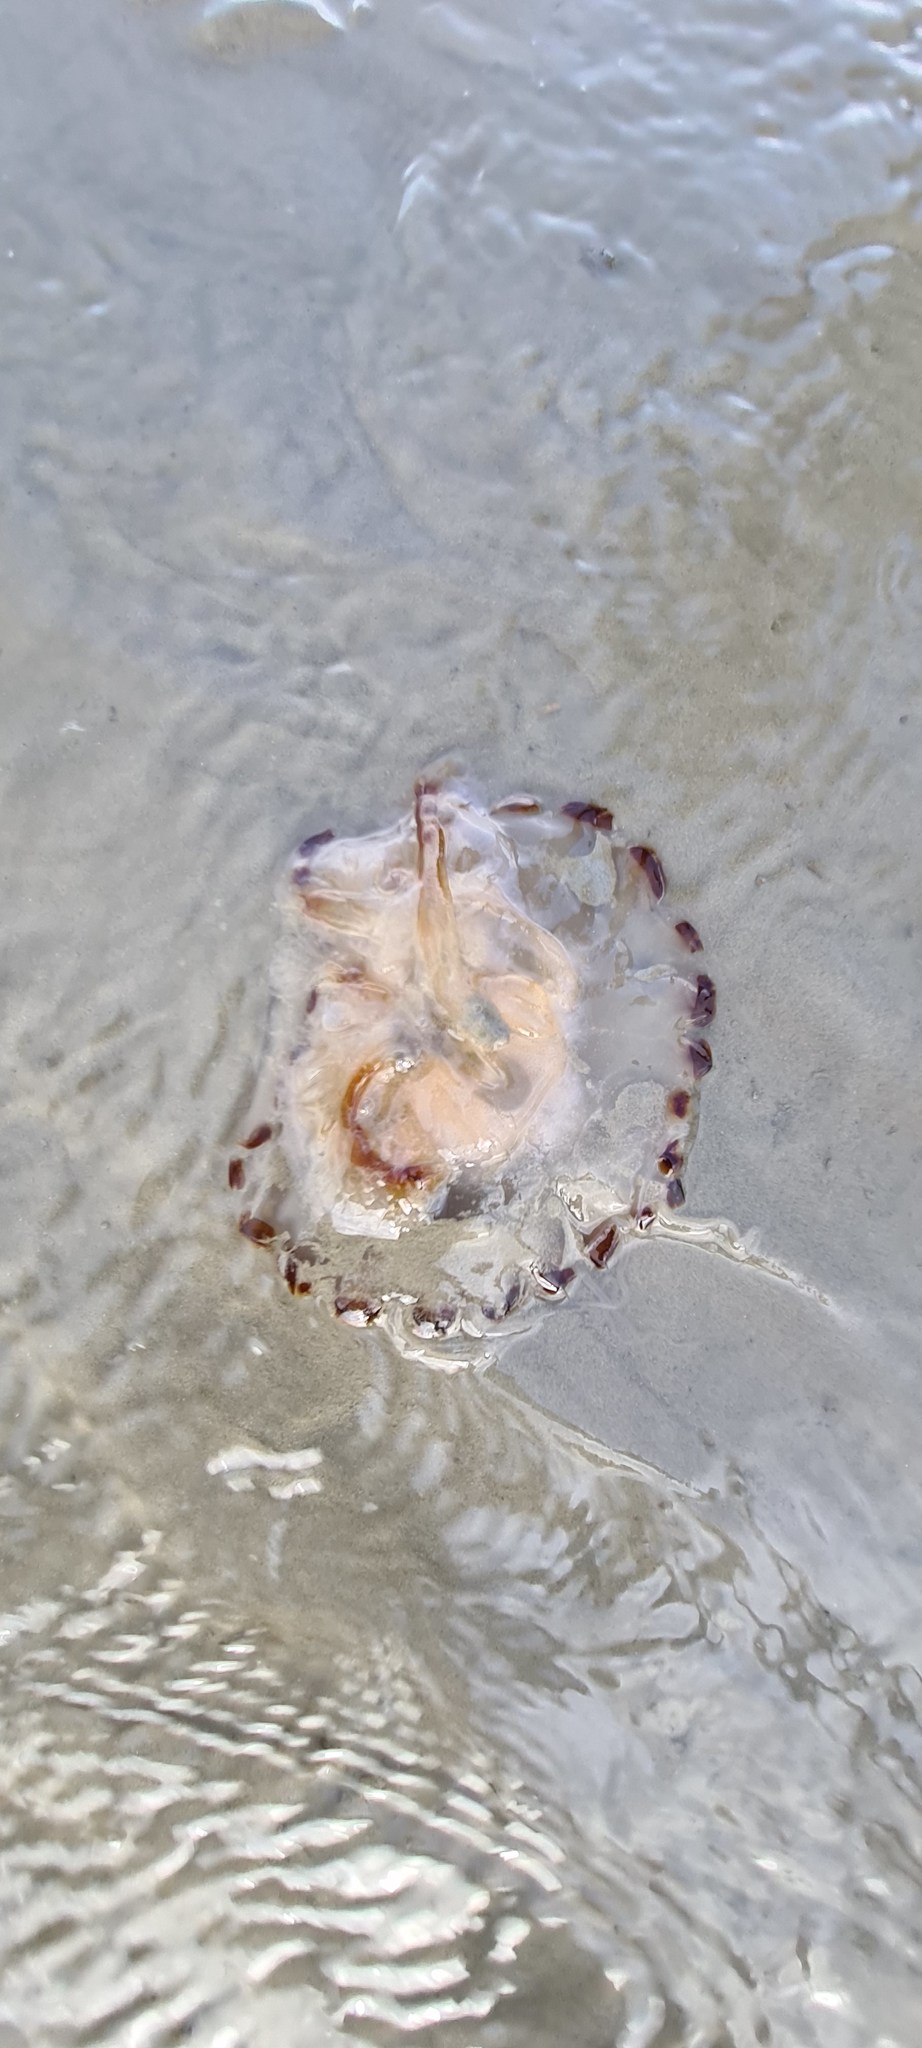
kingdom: Animalia
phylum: Cnidaria
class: Scyphozoa
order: Semaeostomeae
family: Pelagiidae
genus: Chrysaora
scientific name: Chrysaora hysoscella
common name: Compass jellyfish
